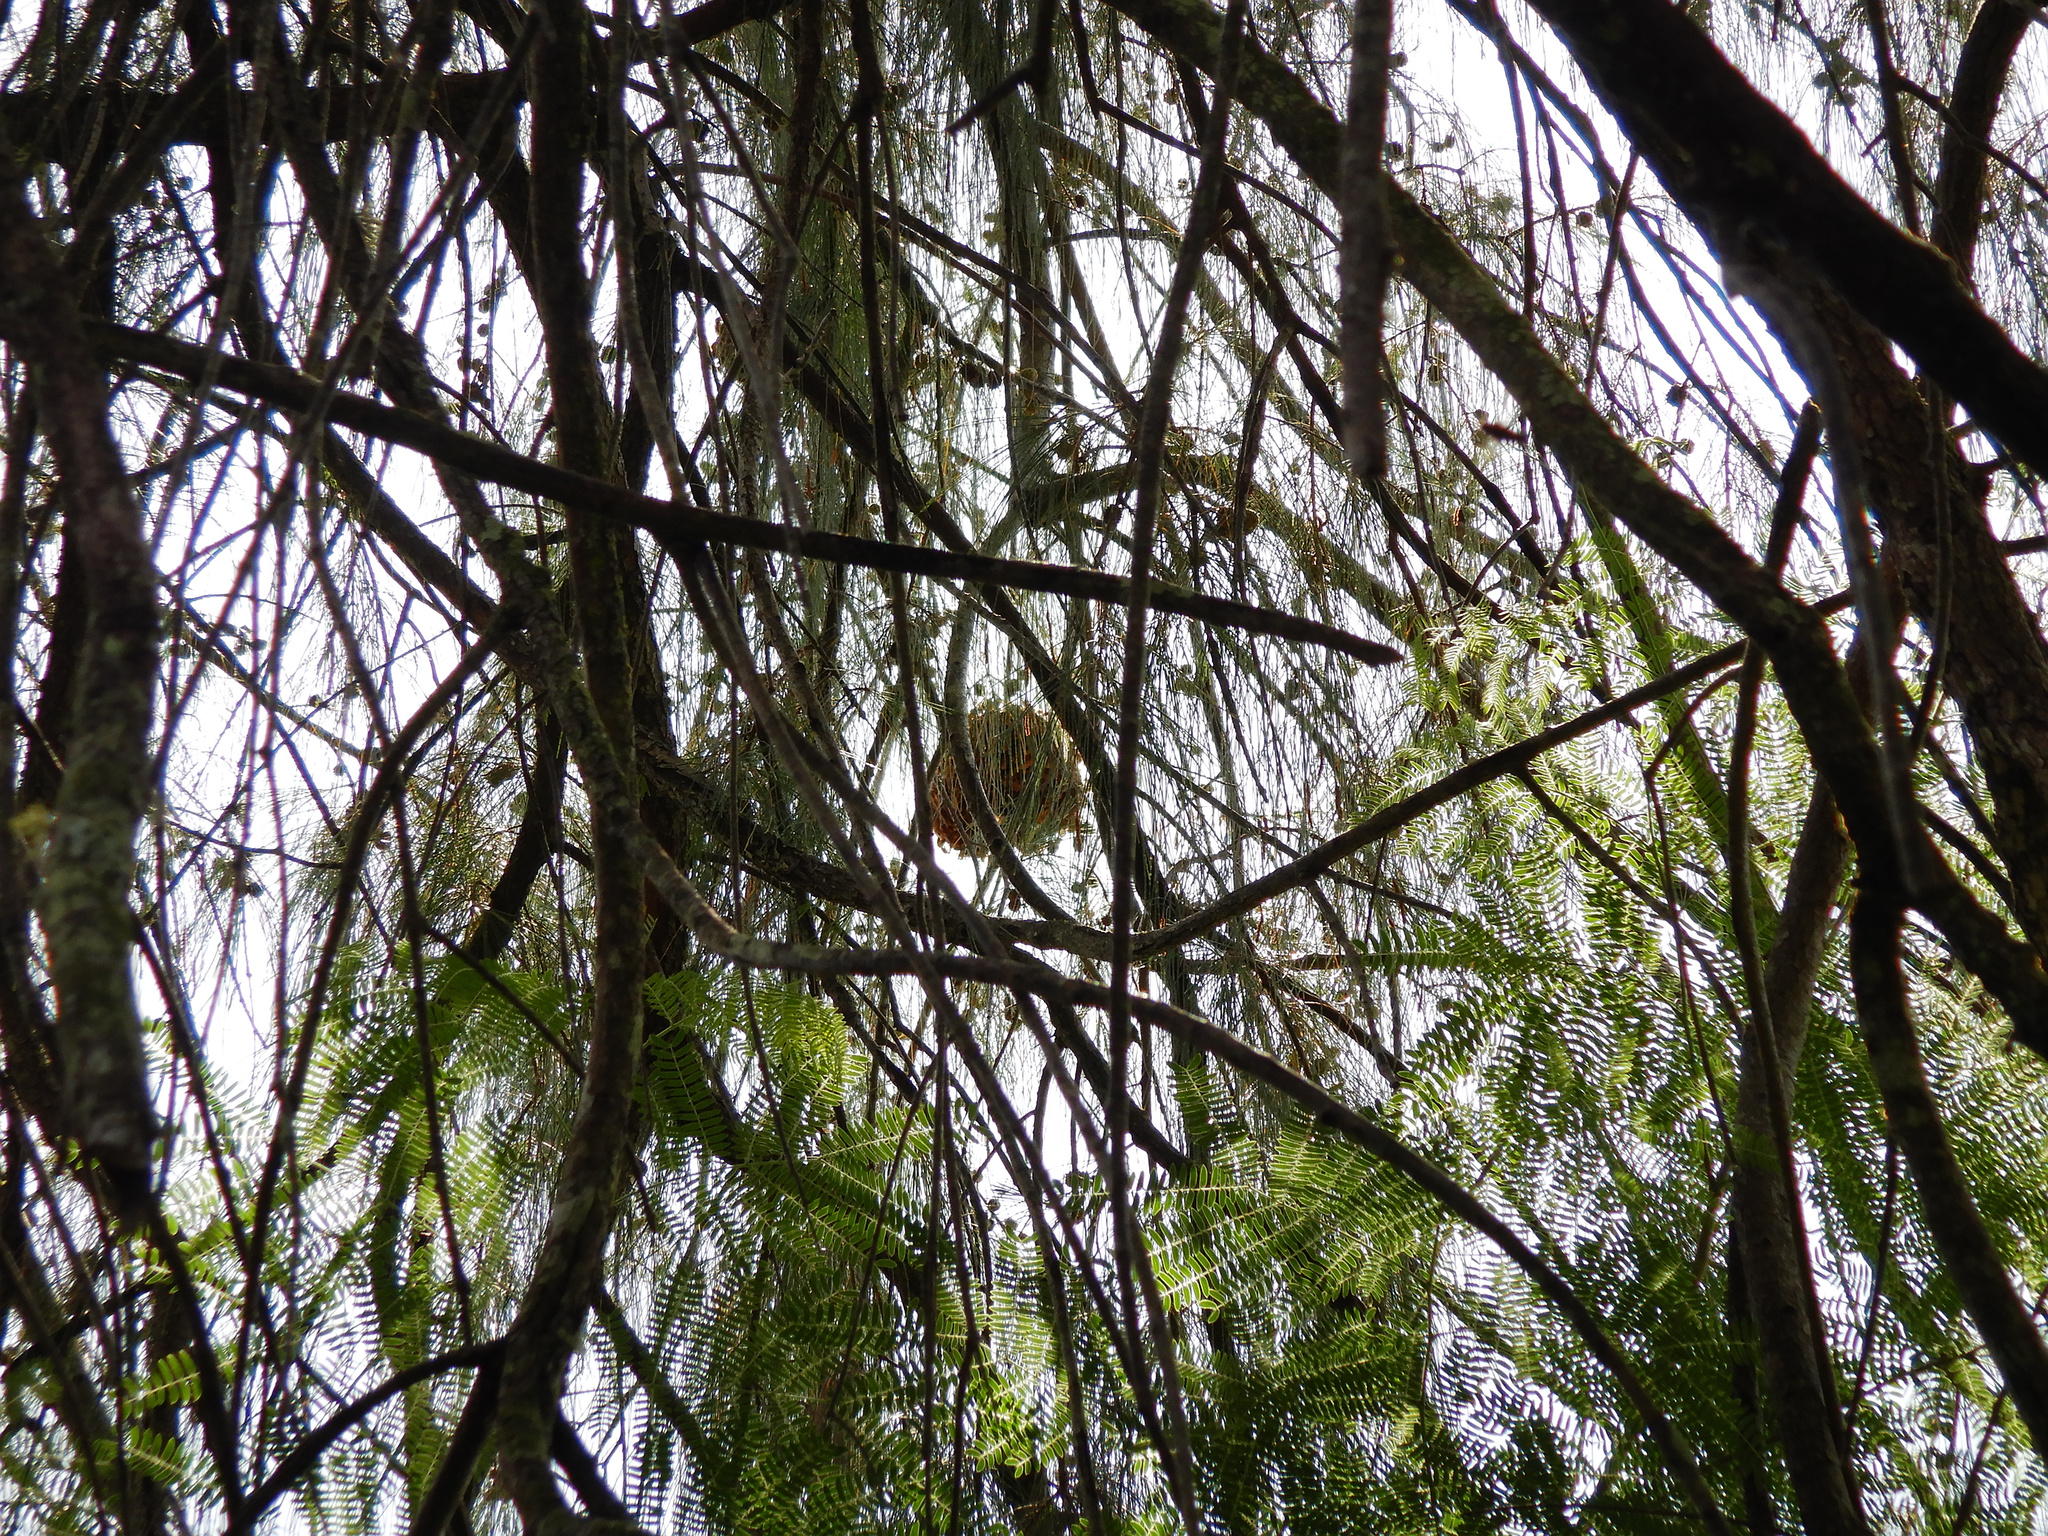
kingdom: Animalia
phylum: Arthropoda
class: Insecta
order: Hymenoptera
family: Eumenidae
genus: Polistes
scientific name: Polistes olivaceus
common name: Paper wasp
